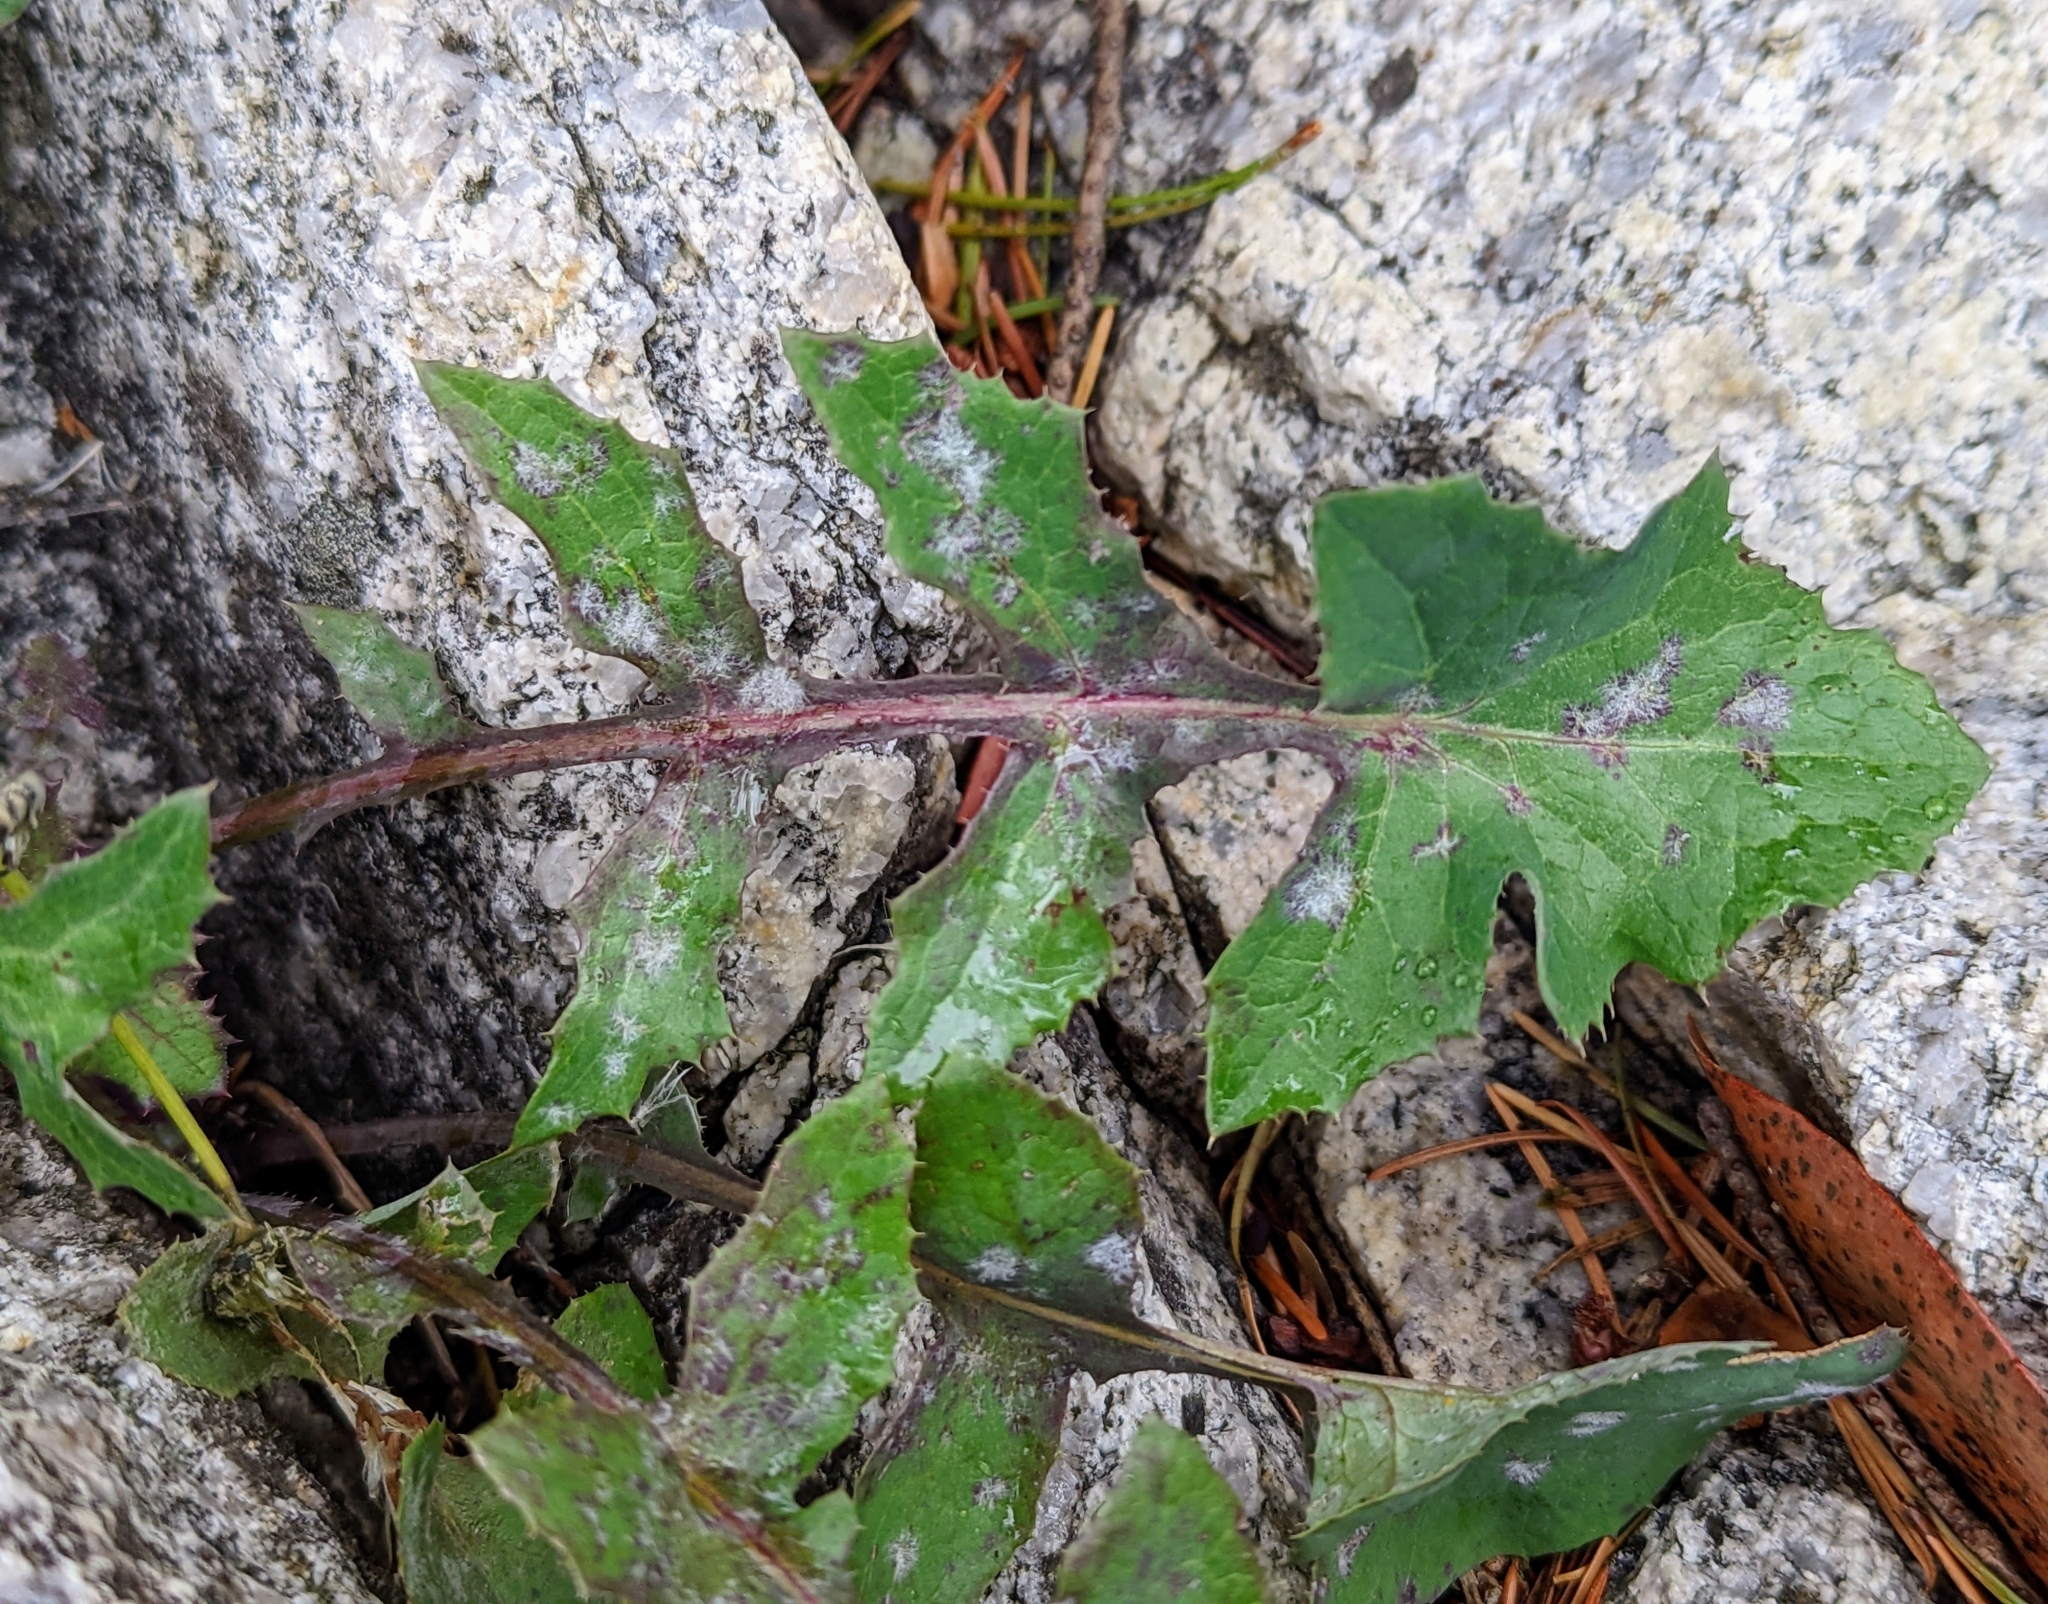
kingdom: Plantae
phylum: Tracheophyta
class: Magnoliopsida
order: Asterales
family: Asteraceae
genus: Sonchus
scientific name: Sonchus oleraceus
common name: Common sowthistle
